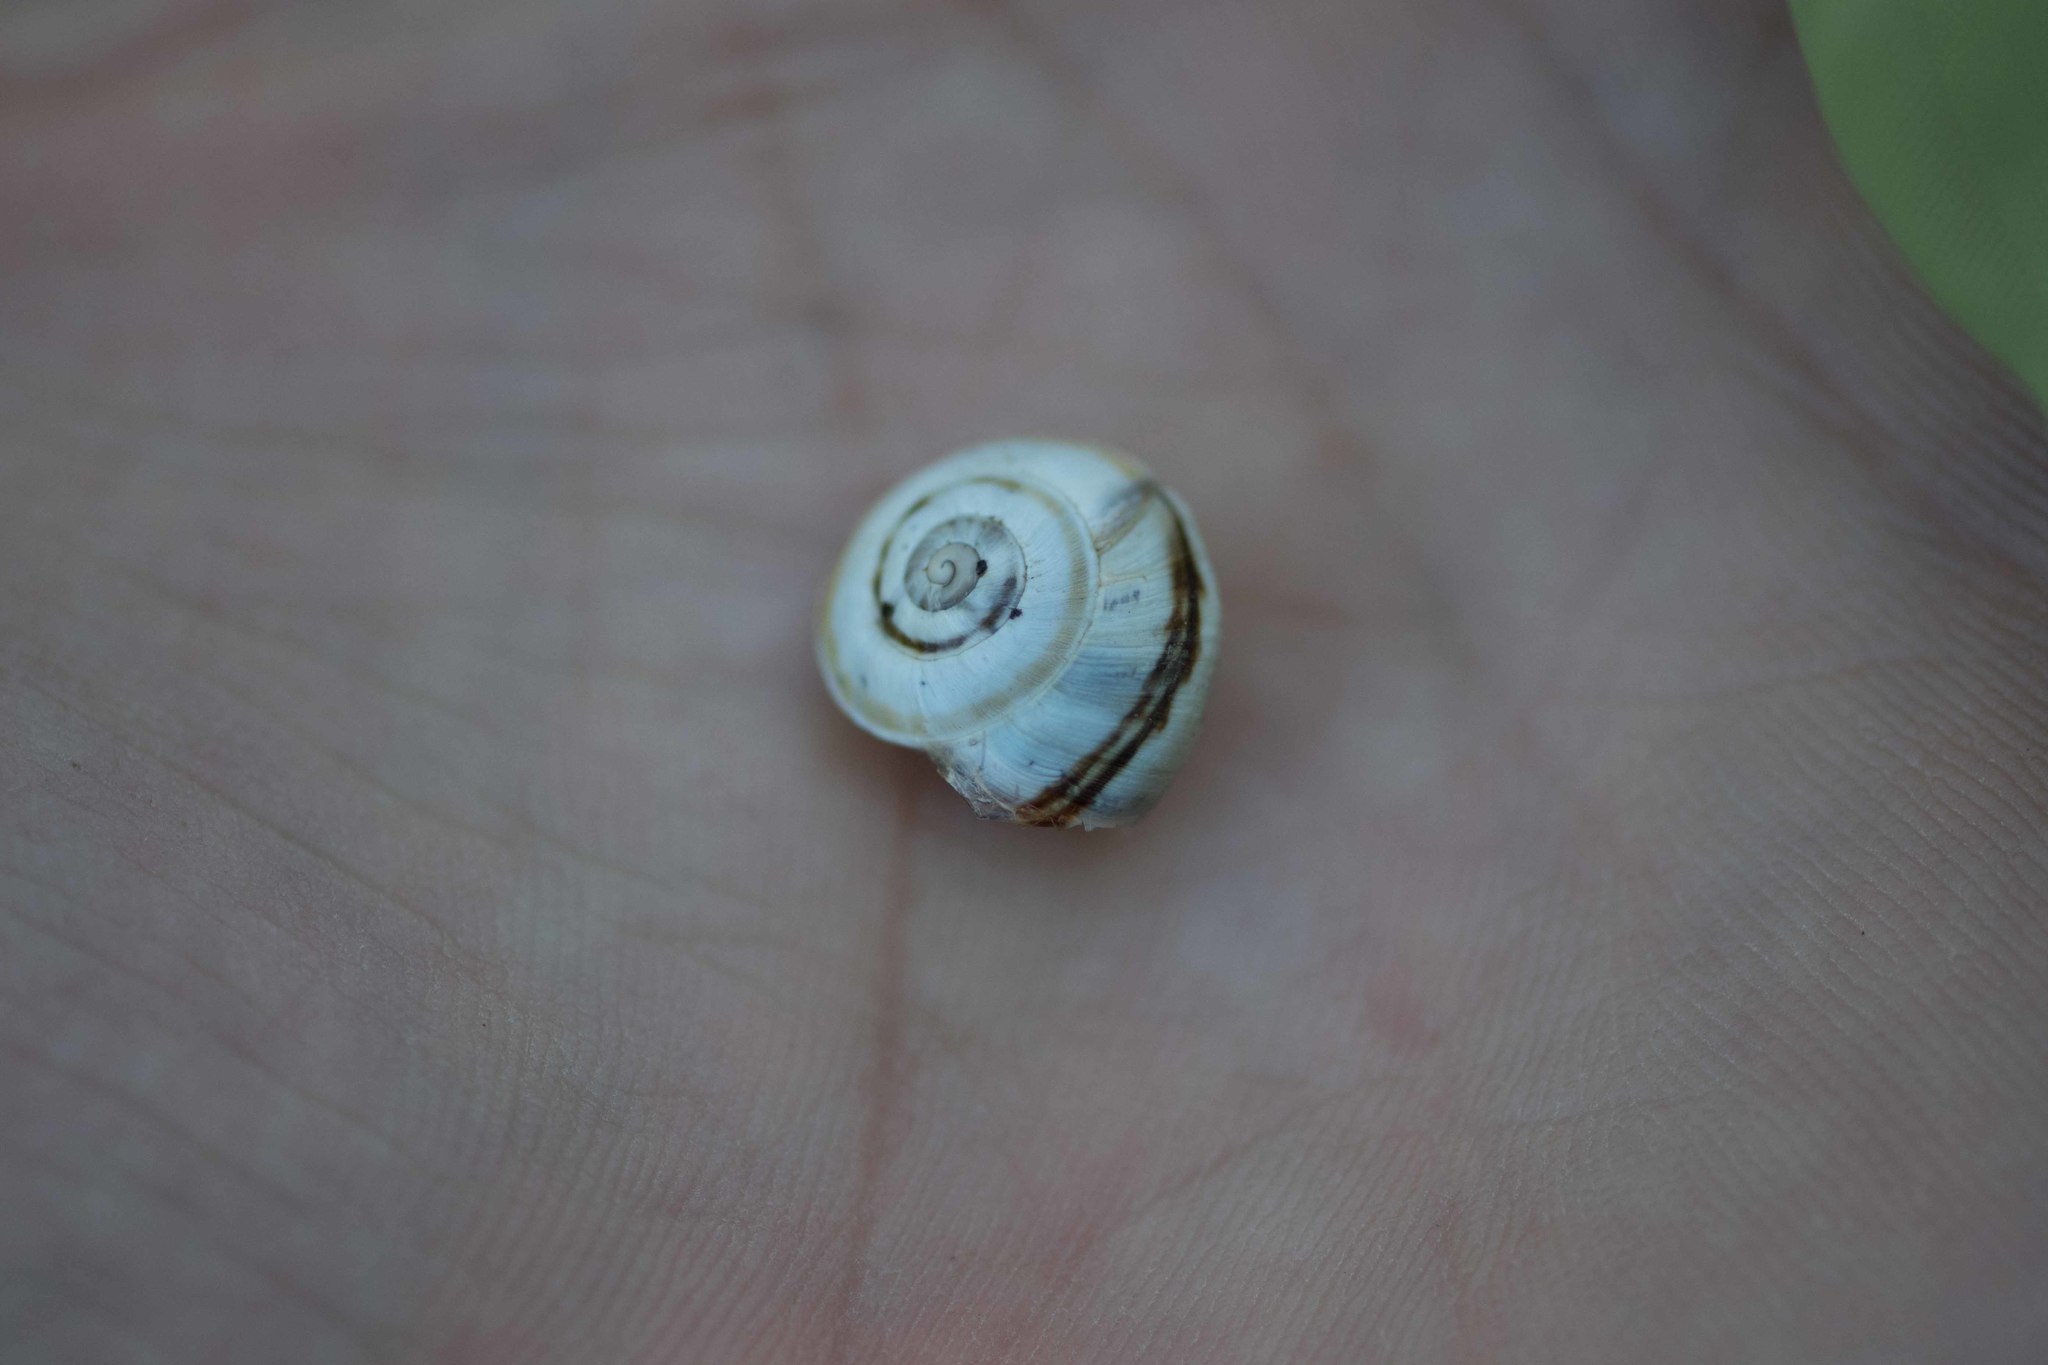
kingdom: Animalia
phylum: Mollusca
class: Gastropoda
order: Stylommatophora
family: Helicidae
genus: Theba
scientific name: Theba pisana
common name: White snail
